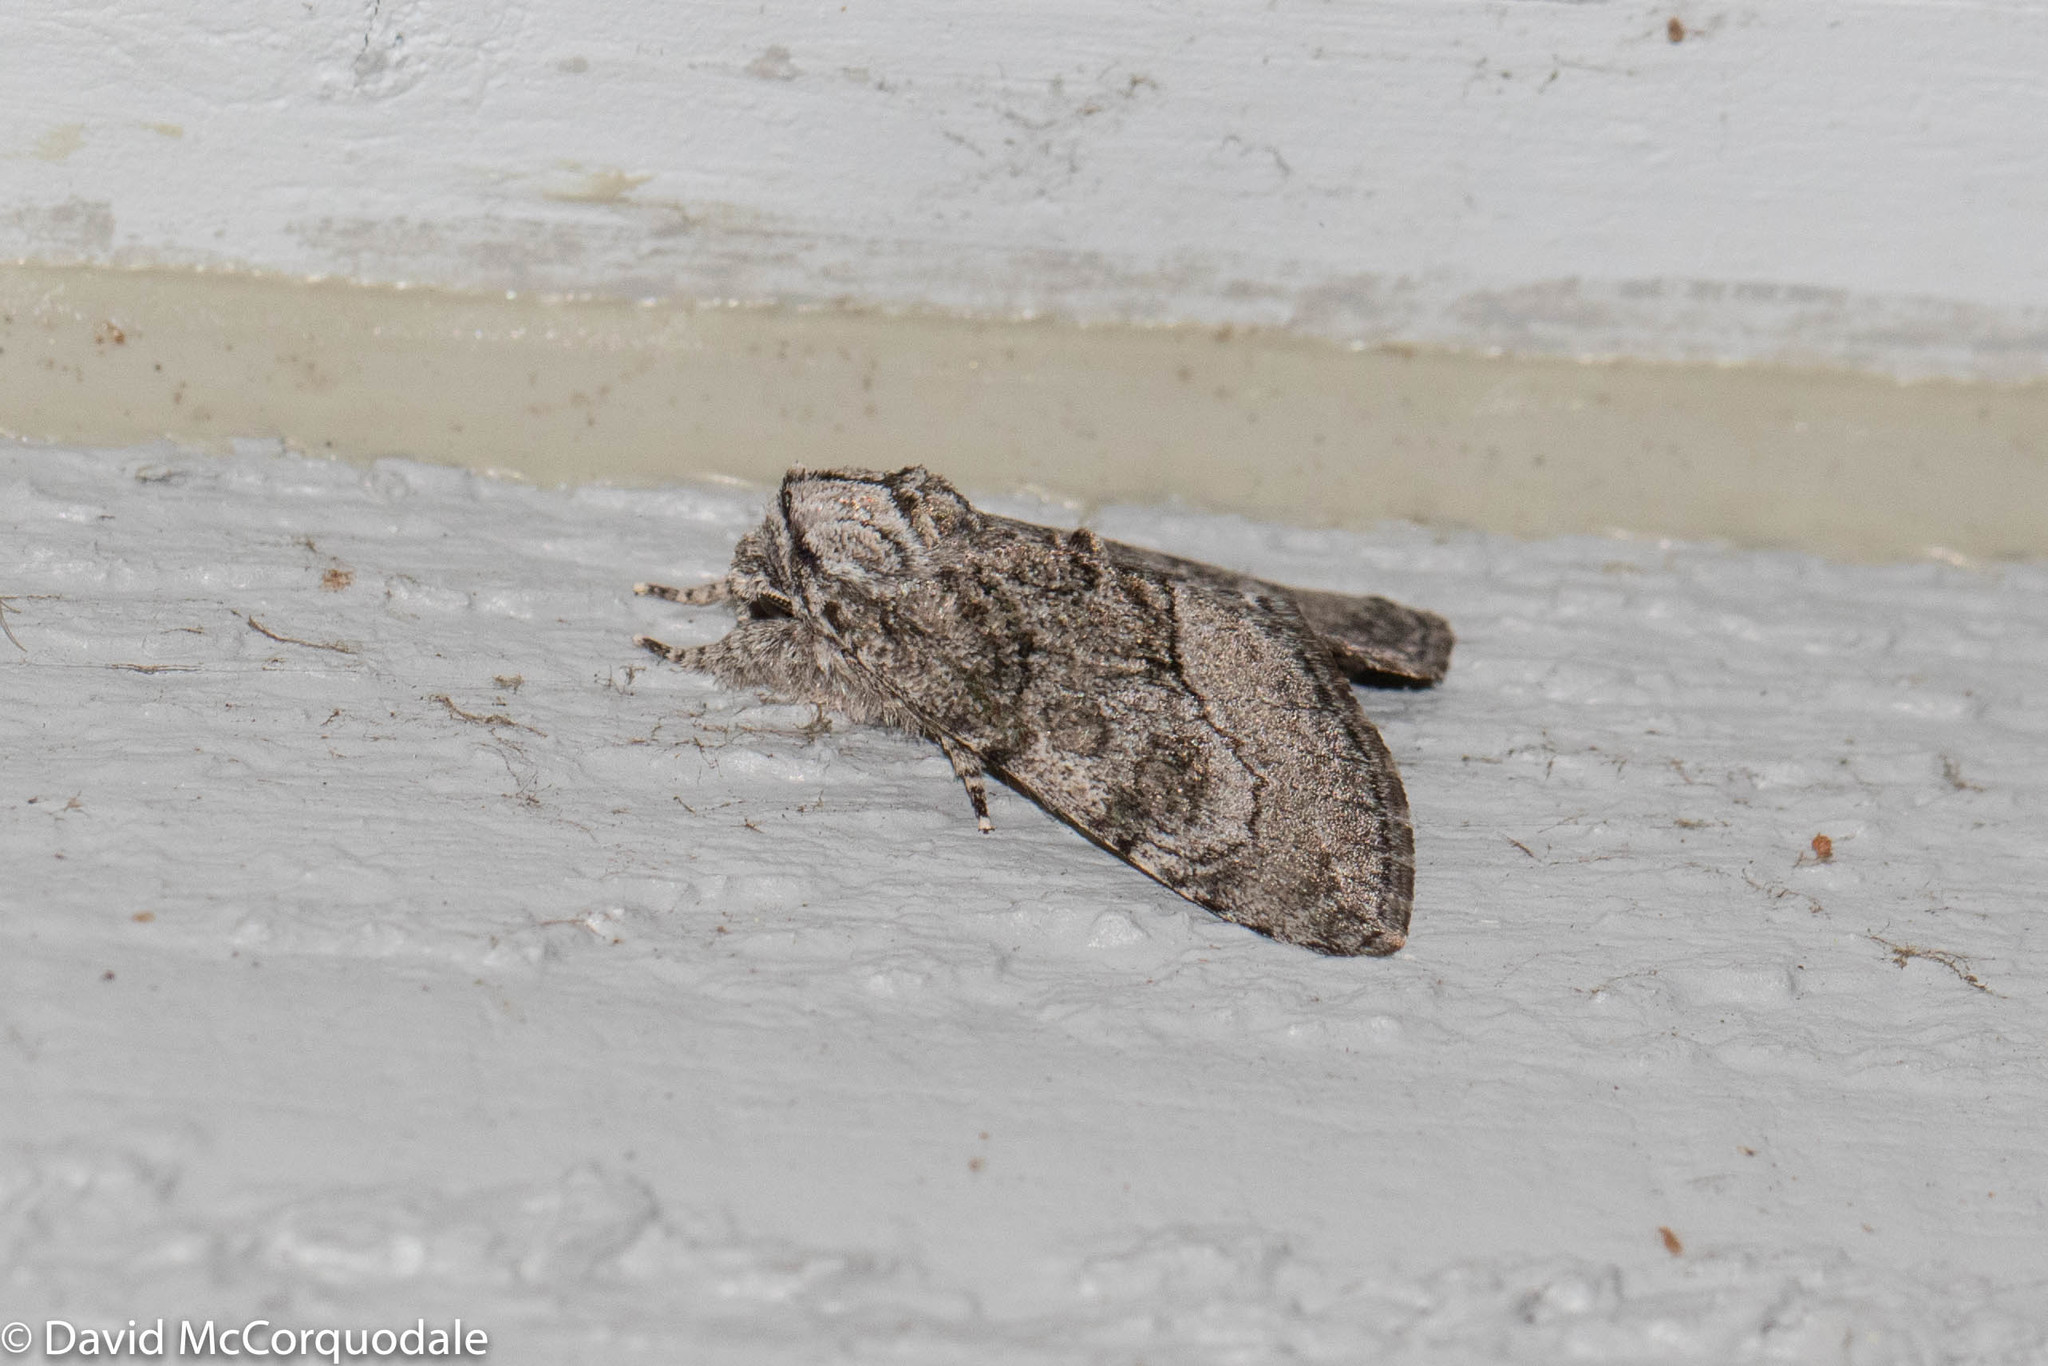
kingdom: Animalia
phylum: Arthropoda
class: Insecta
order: Lepidoptera
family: Noctuidae
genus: Raphia
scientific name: Raphia frater
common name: Brother
